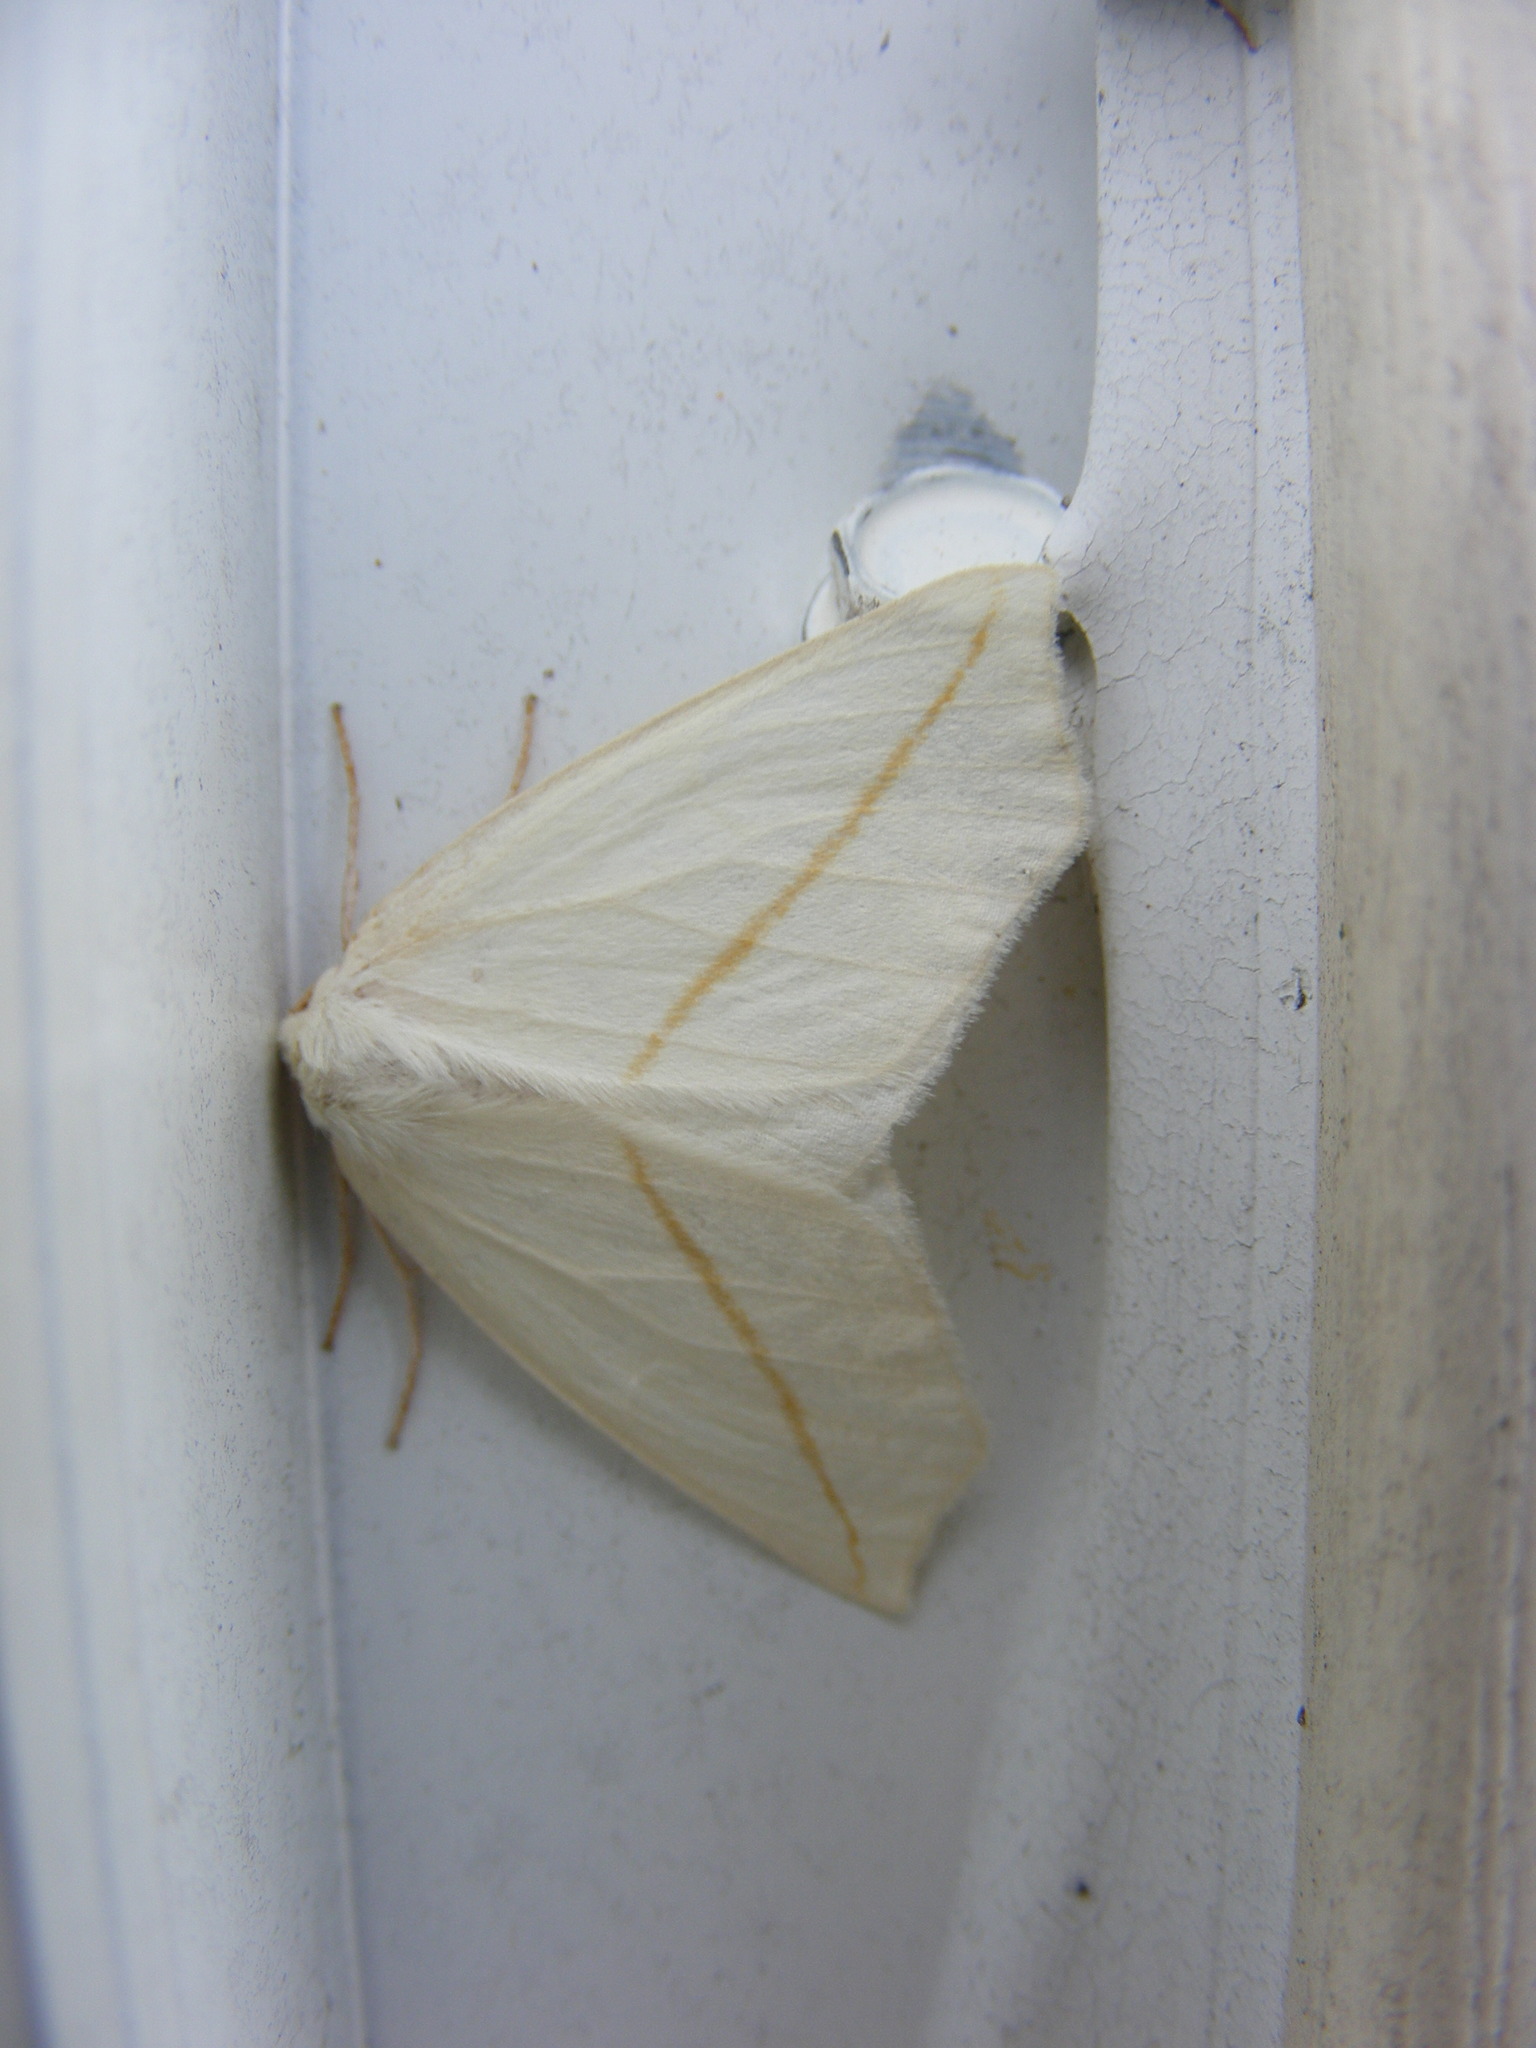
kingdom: Animalia
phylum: Arthropoda
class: Insecta
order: Lepidoptera
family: Geometridae
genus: Tetracis
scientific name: Tetracis cachexiata
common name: White slant-line
